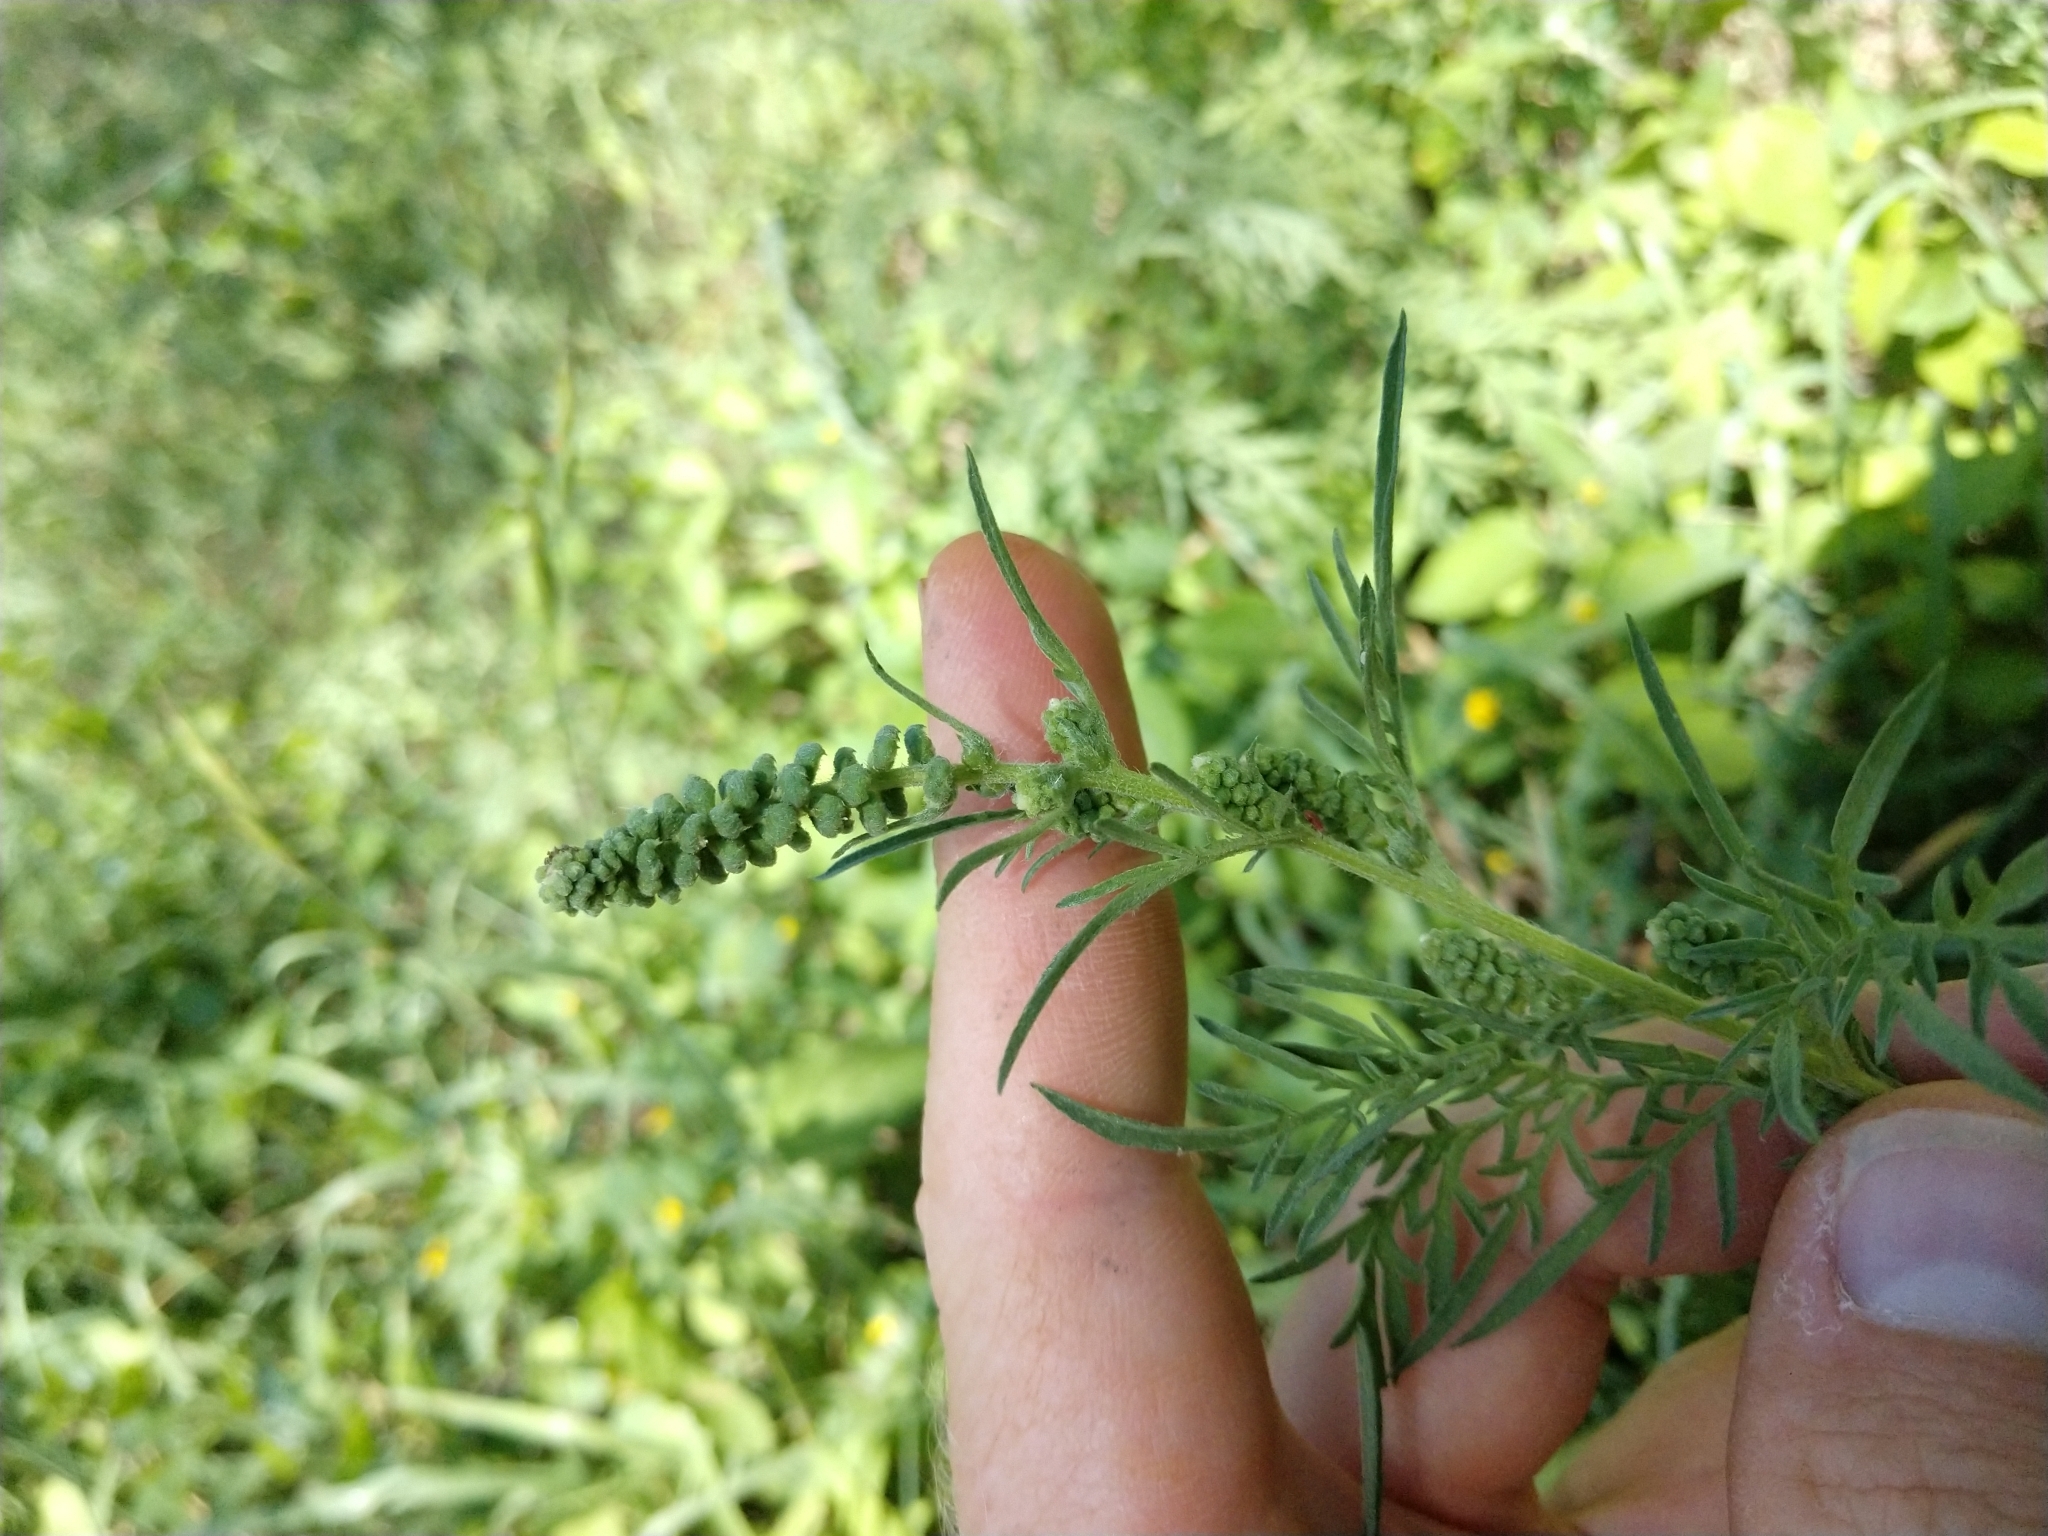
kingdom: Plantae
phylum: Tracheophyta
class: Magnoliopsida
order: Asterales
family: Asteraceae
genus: Ambrosia
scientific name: Ambrosia confertiflora
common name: Bur ragweed
